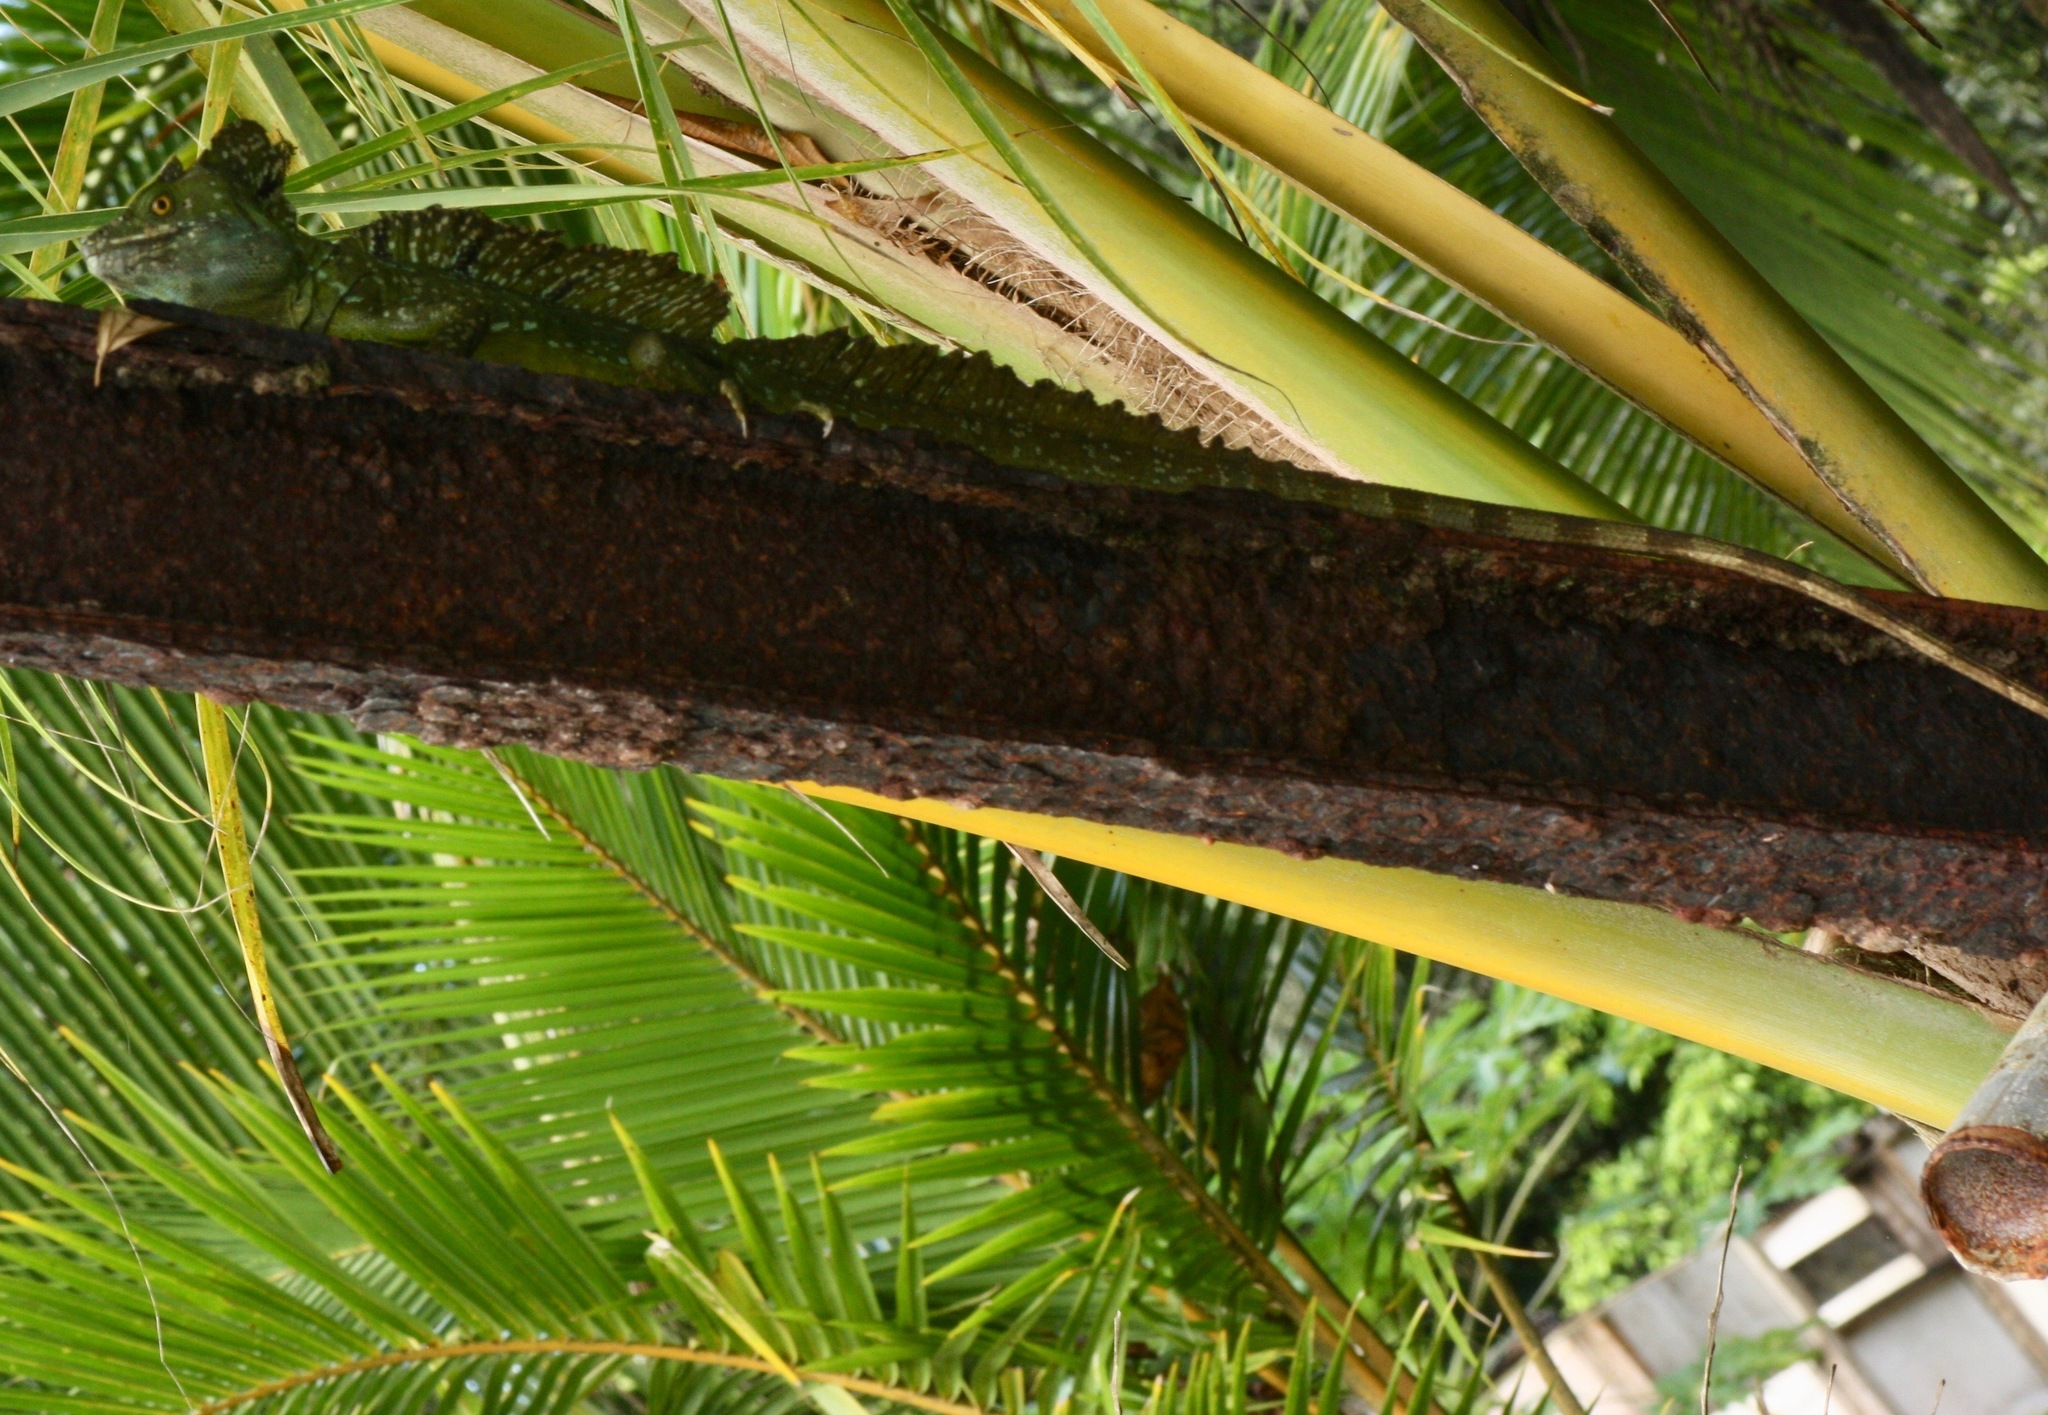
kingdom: Animalia
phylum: Chordata
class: Squamata
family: Corytophanidae
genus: Basiliscus
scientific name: Basiliscus plumifrons
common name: Green basilisk
